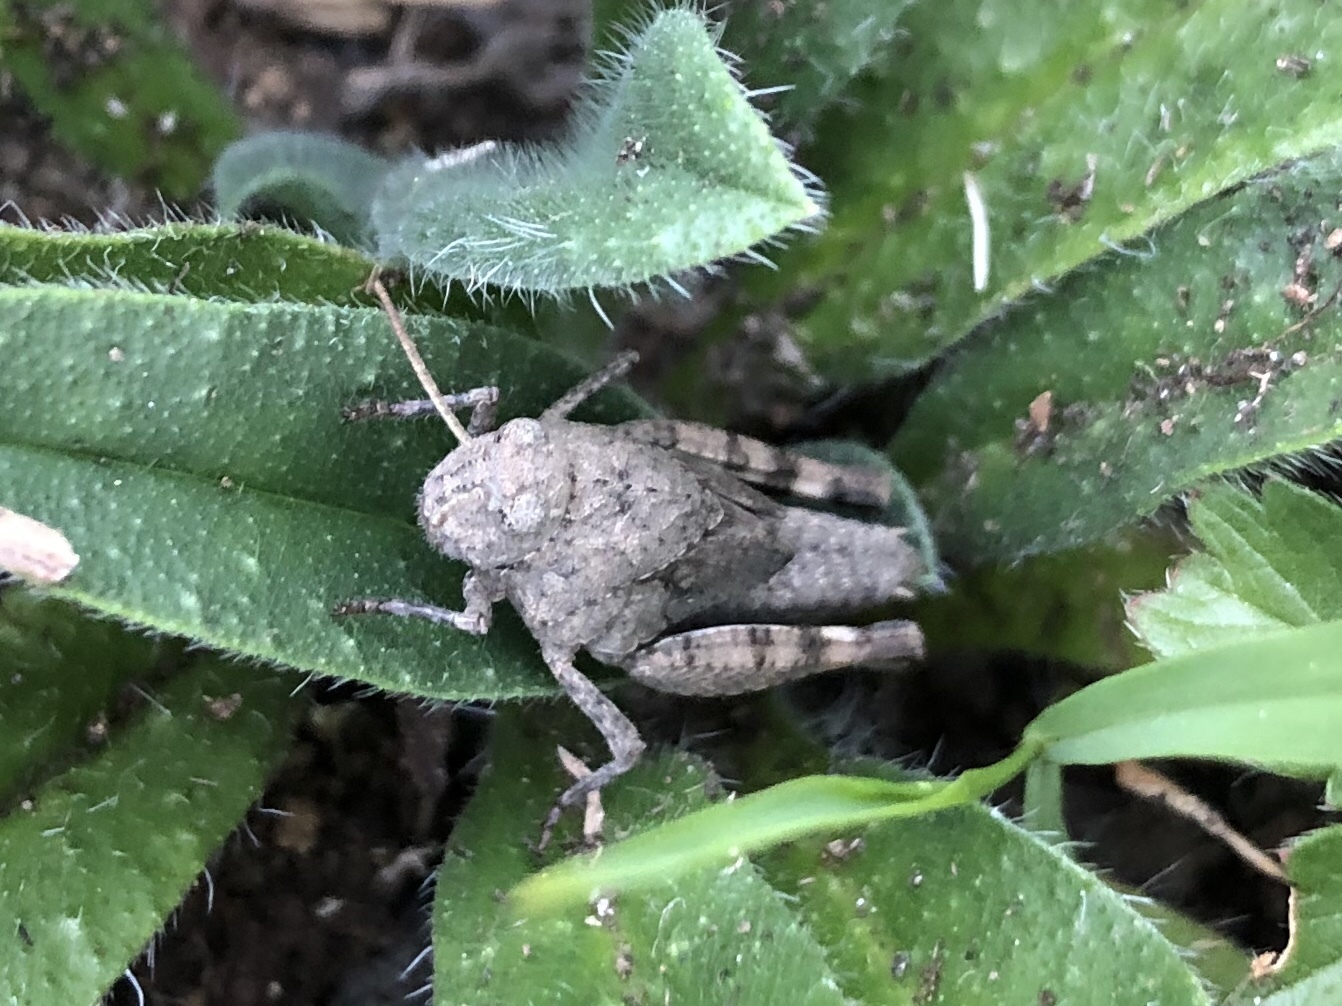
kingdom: Animalia
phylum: Arthropoda
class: Insecta
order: Orthoptera
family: Acrididae
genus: Oedipoda
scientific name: Oedipoda caerulescens
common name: Blue-winged grasshopper
